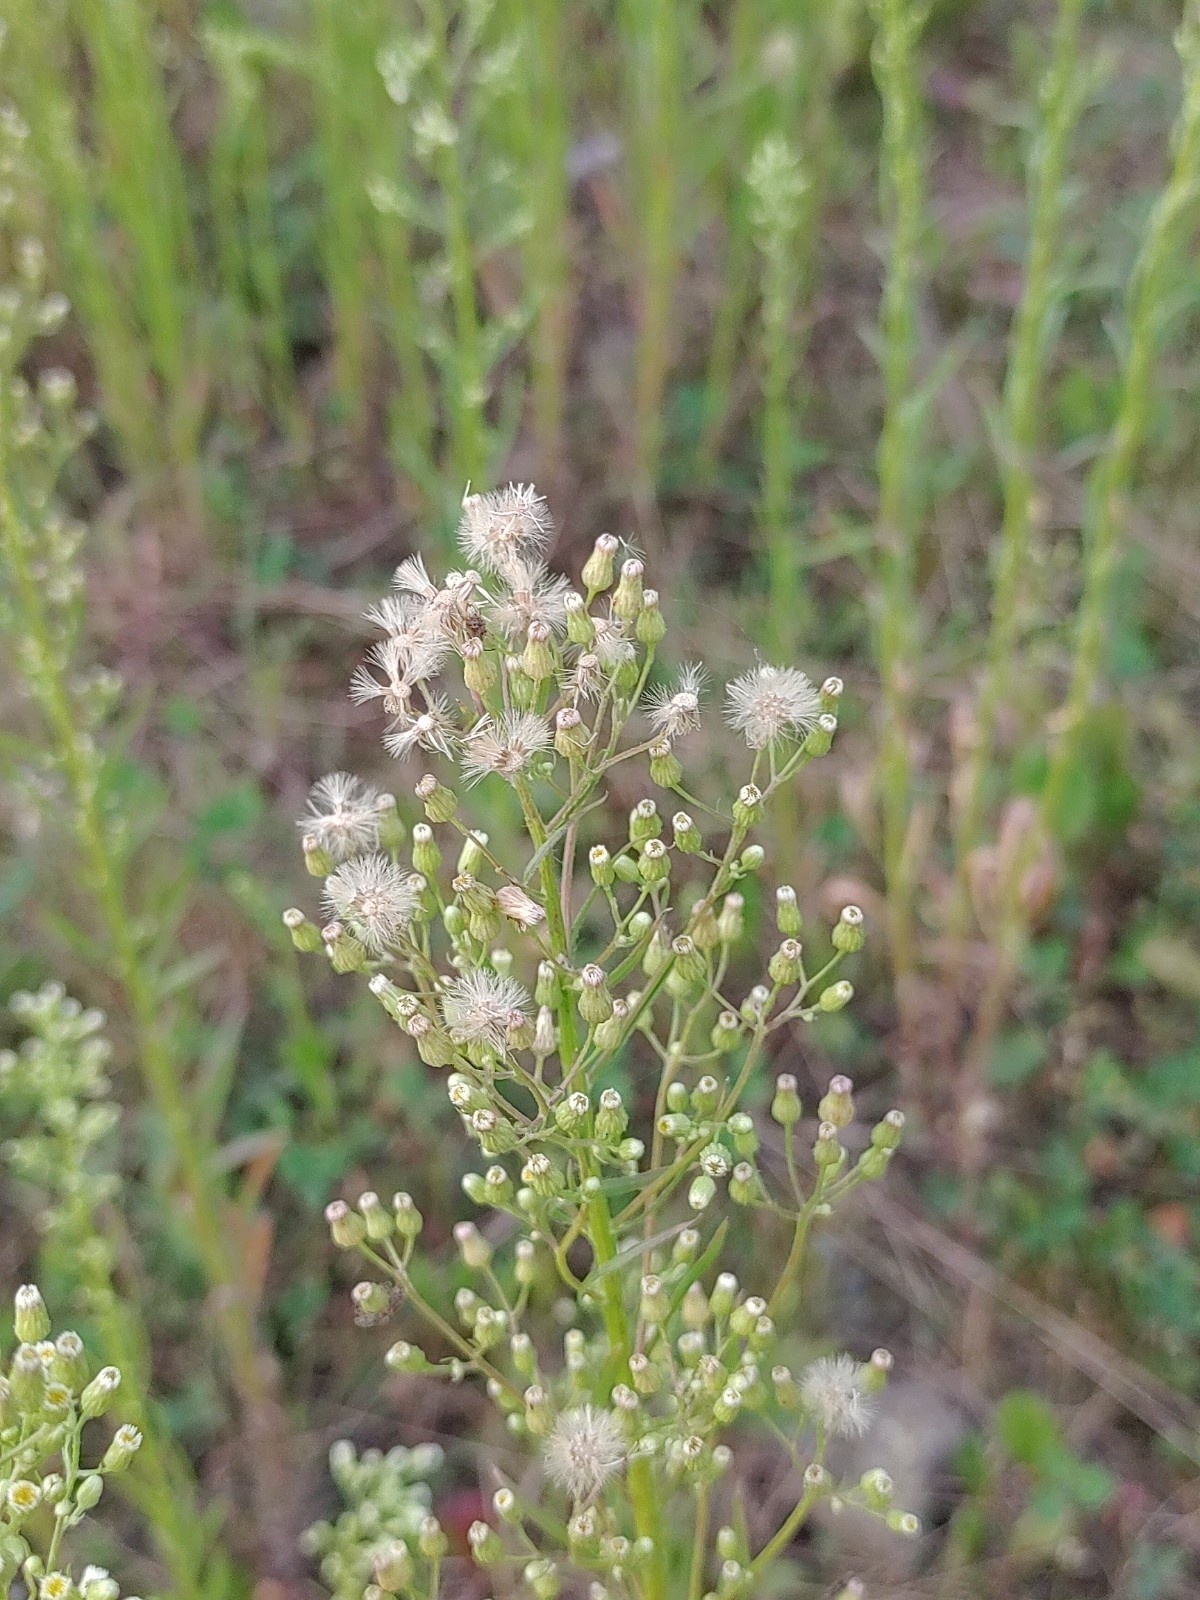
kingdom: Plantae
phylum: Tracheophyta
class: Magnoliopsida
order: Asterales
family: Asteraceae
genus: Erigeron
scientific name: Erigeron canadensis
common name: Canadian fleabane
